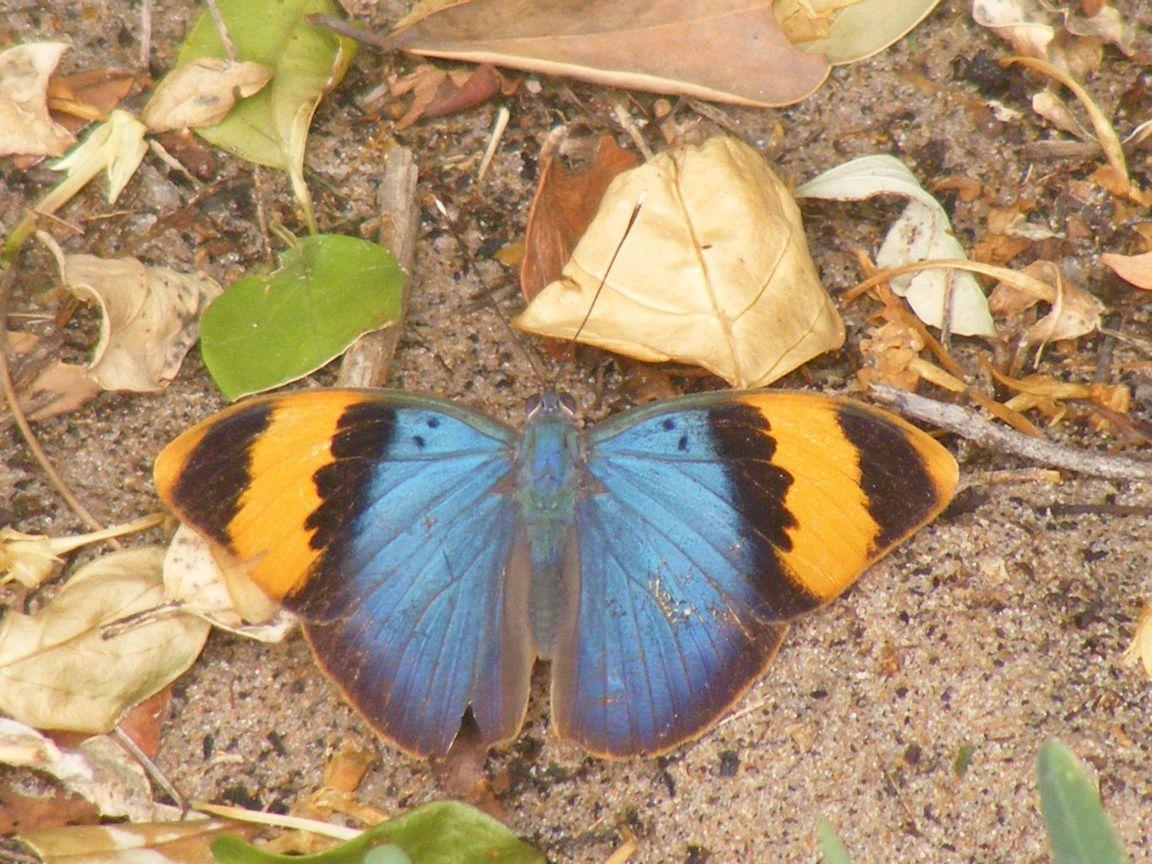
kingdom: Animalia
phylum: Arthropoda
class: Insecta
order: Lepidoptera
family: Nymphalidae
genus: Euphaedra
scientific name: Euphaedra neophron
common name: Gold-banded forester
